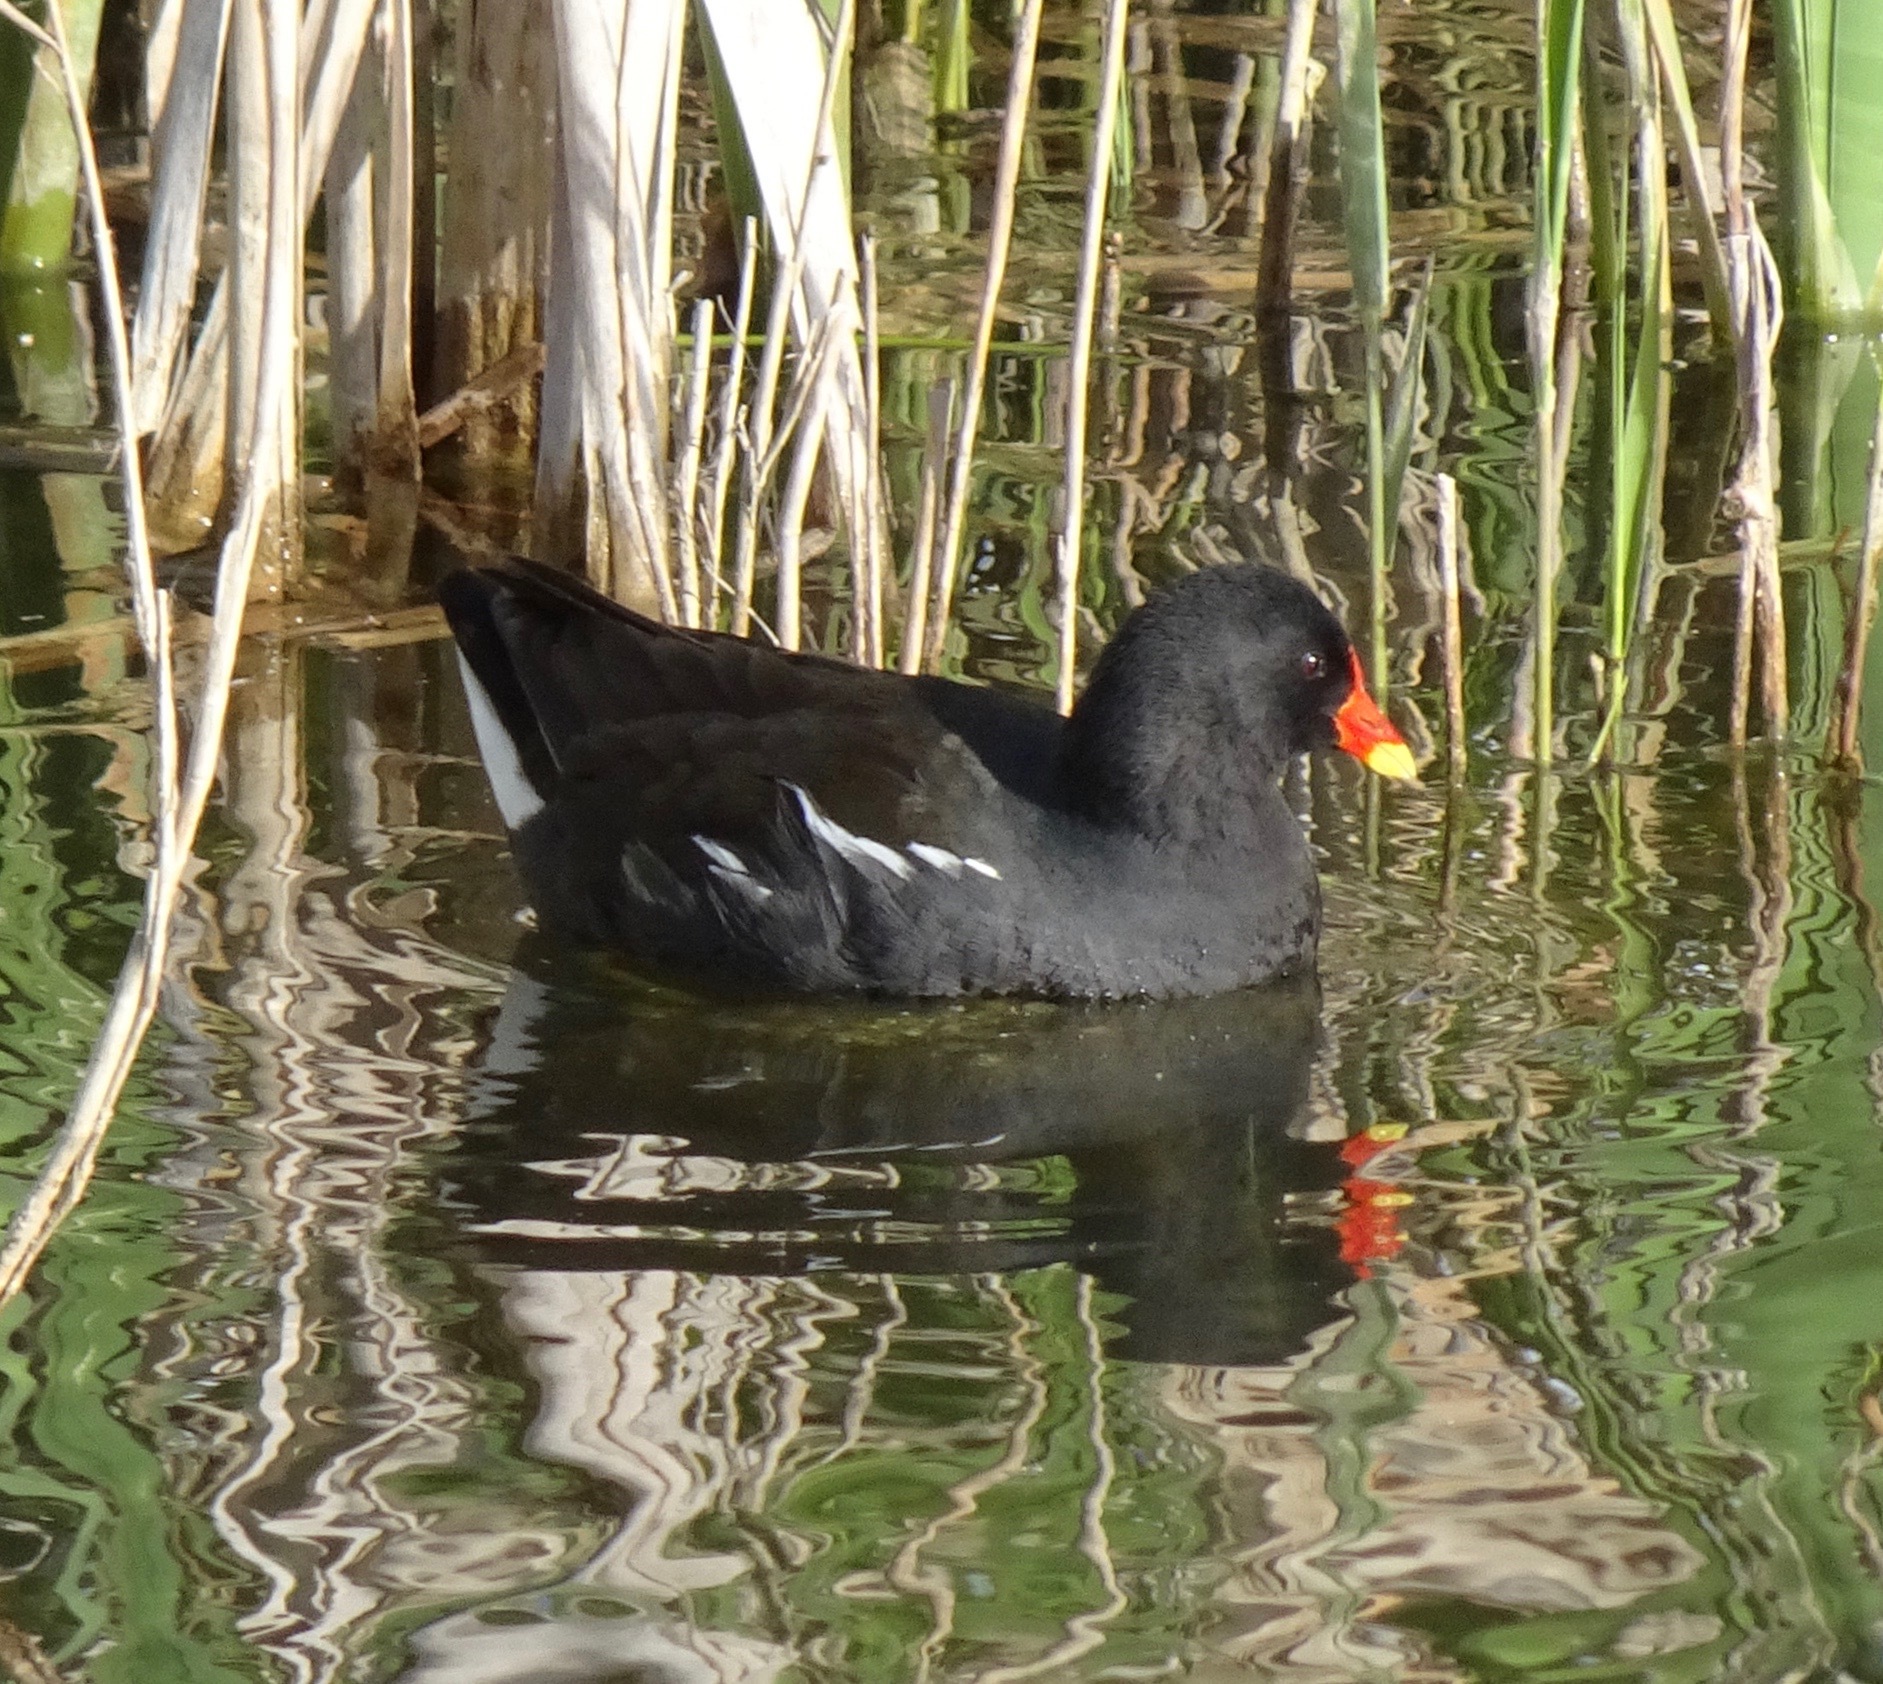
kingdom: Animalia
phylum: Chordata
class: Aves
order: Gruiformes
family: Rallidae
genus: Gallinula
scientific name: Gallinula chloropus
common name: Common moorhen
